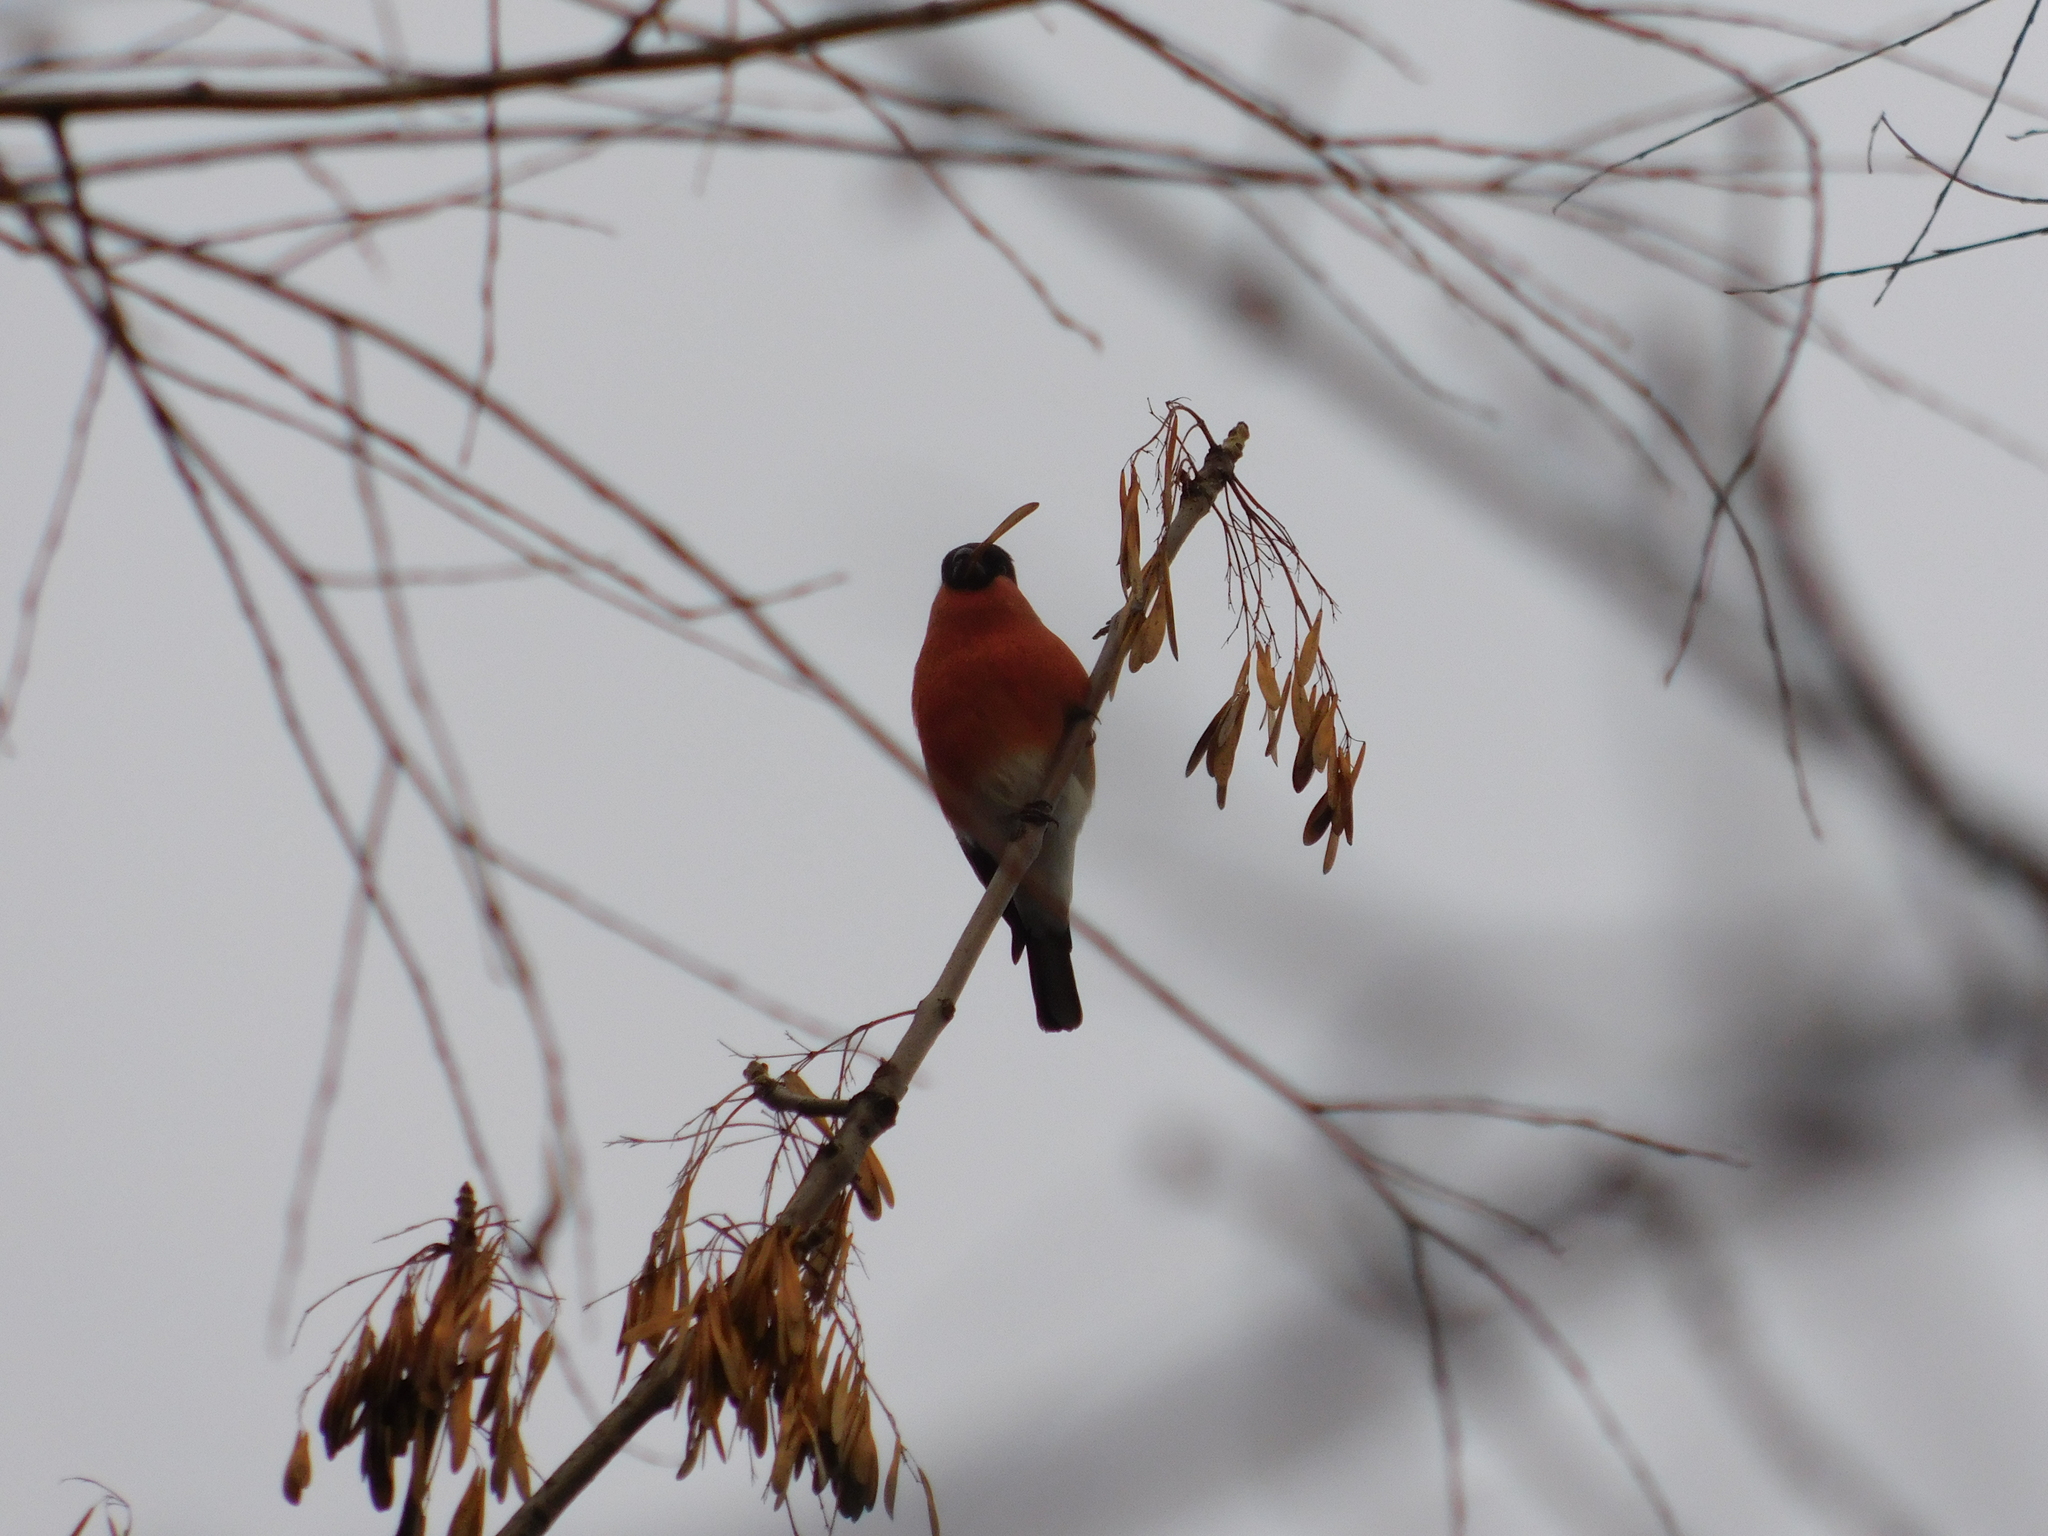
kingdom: Animalia
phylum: Chordata
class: Aves
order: Passeriformes
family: Fringillidae
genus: Pyrrhula
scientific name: Pyrrhula pyrrhula
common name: Eurasian bullfinch
